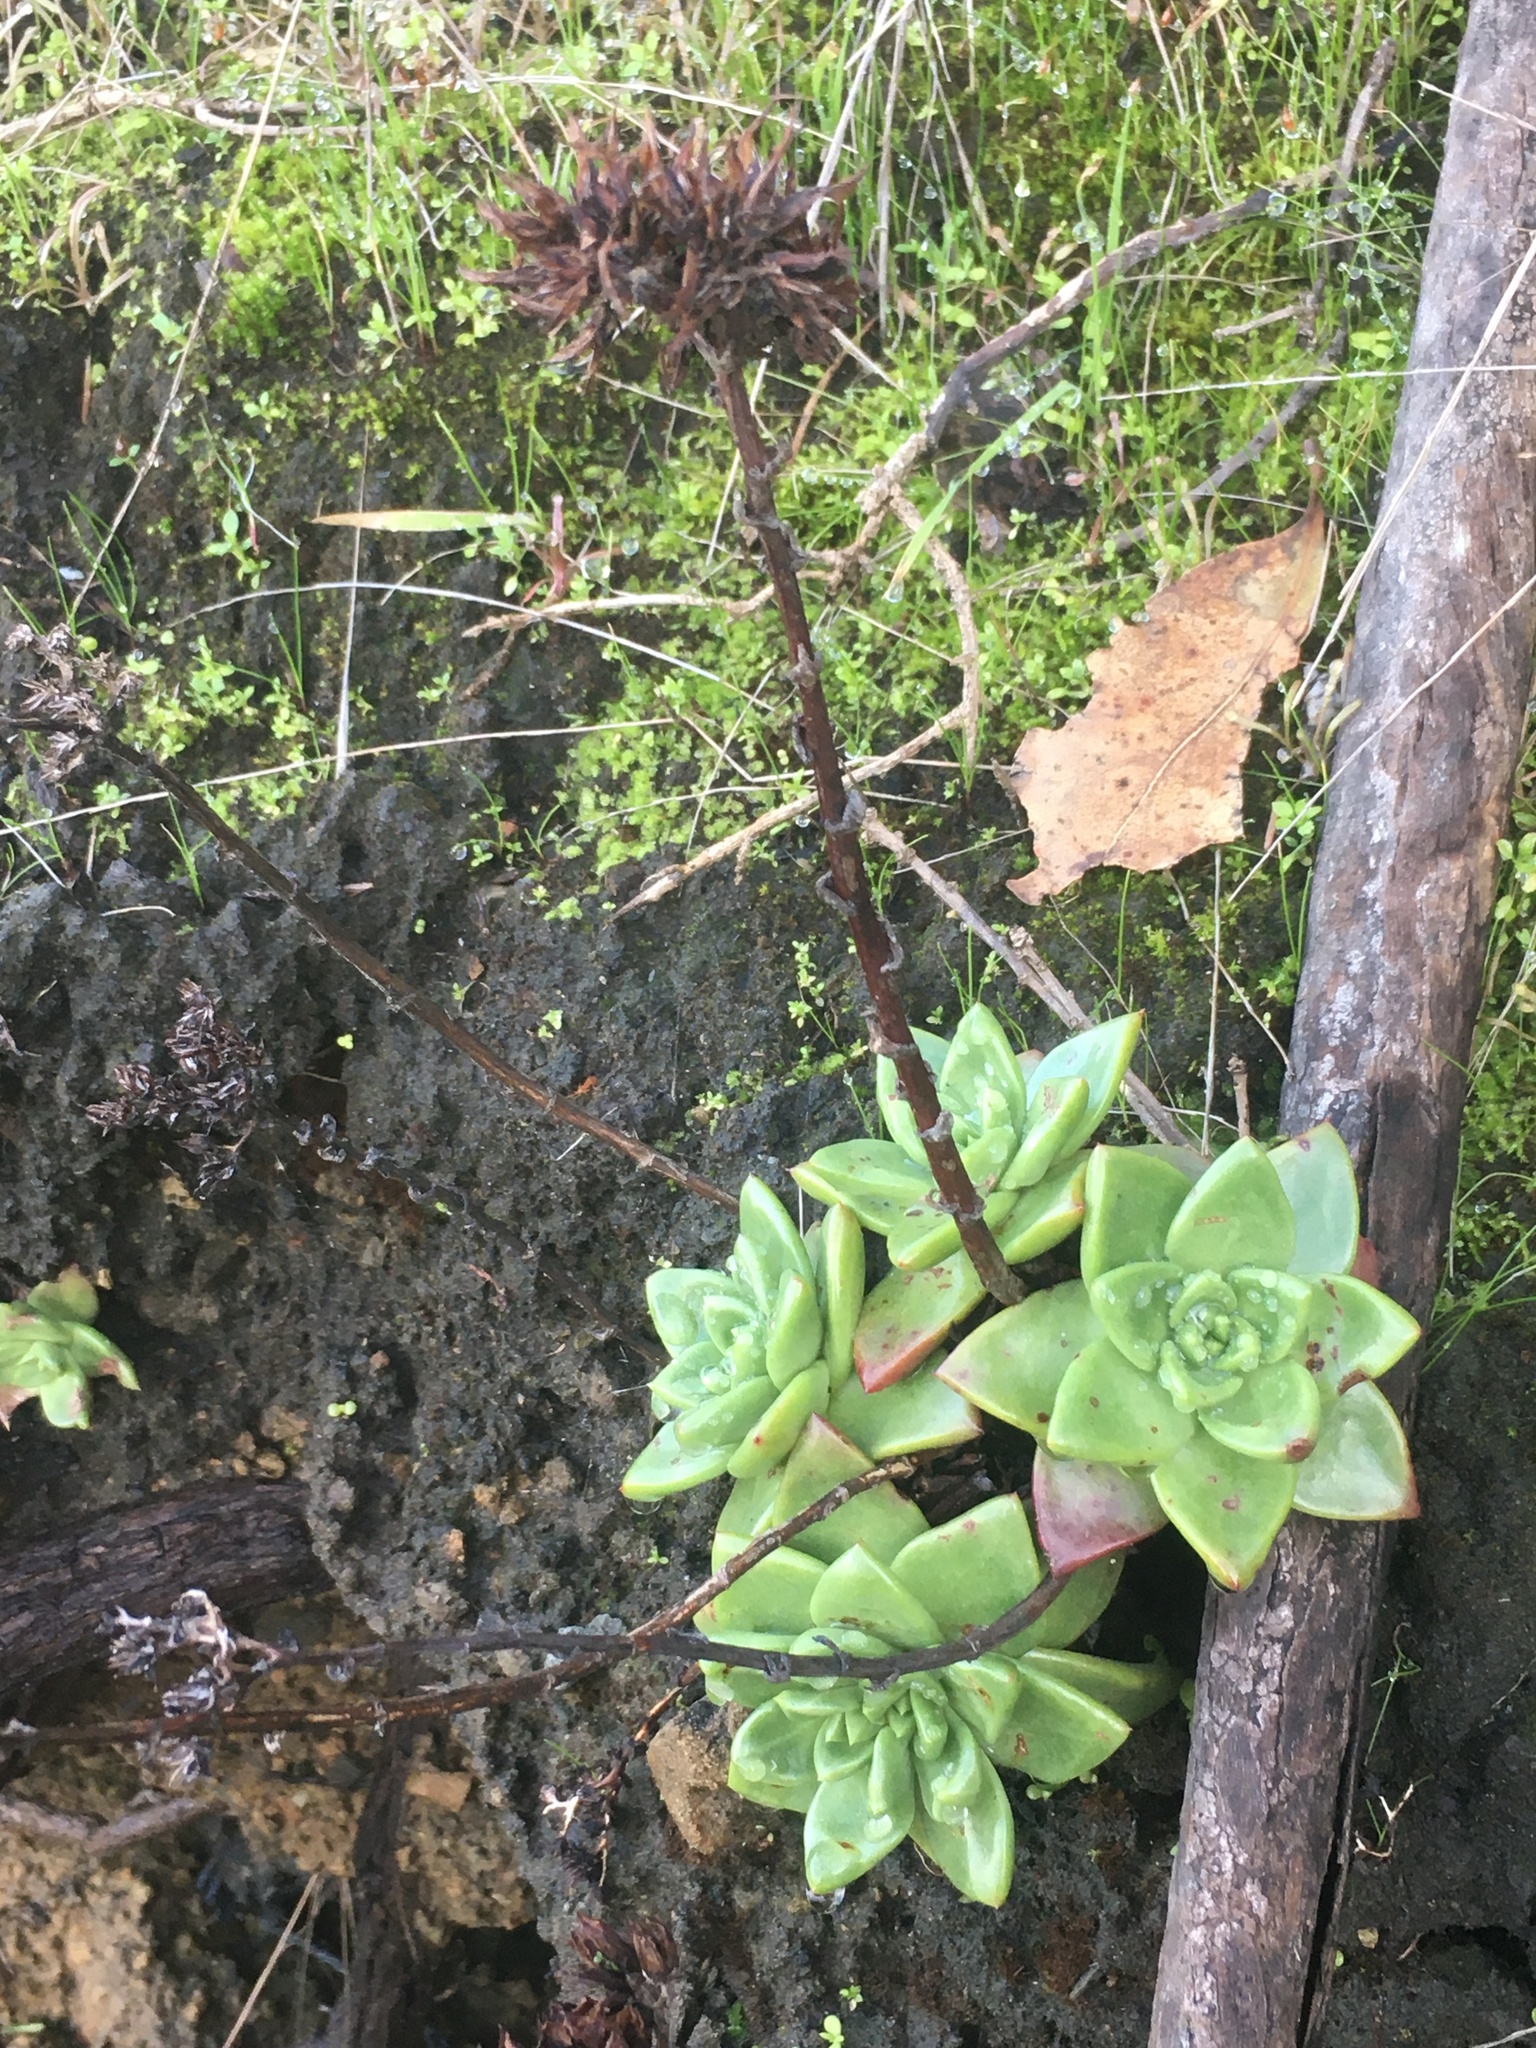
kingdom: Plantae
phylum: Tracheophyta
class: Magnoliopsida
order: Saxifragales
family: Crassulaceae
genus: Dudleya
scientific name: Dudleya farinosa
